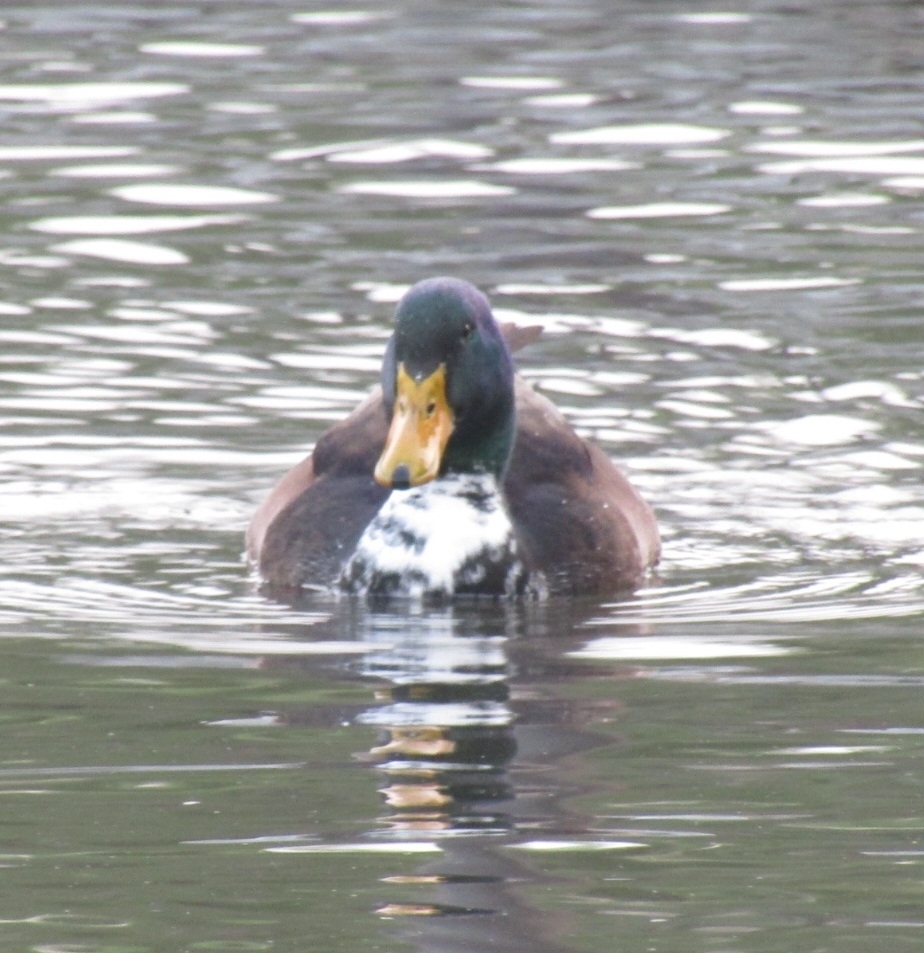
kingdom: Animalia
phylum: Chordata
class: Aves
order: Anseriformes
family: Anatidae
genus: Anas
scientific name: Anas platyrhynchos
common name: Mallard
